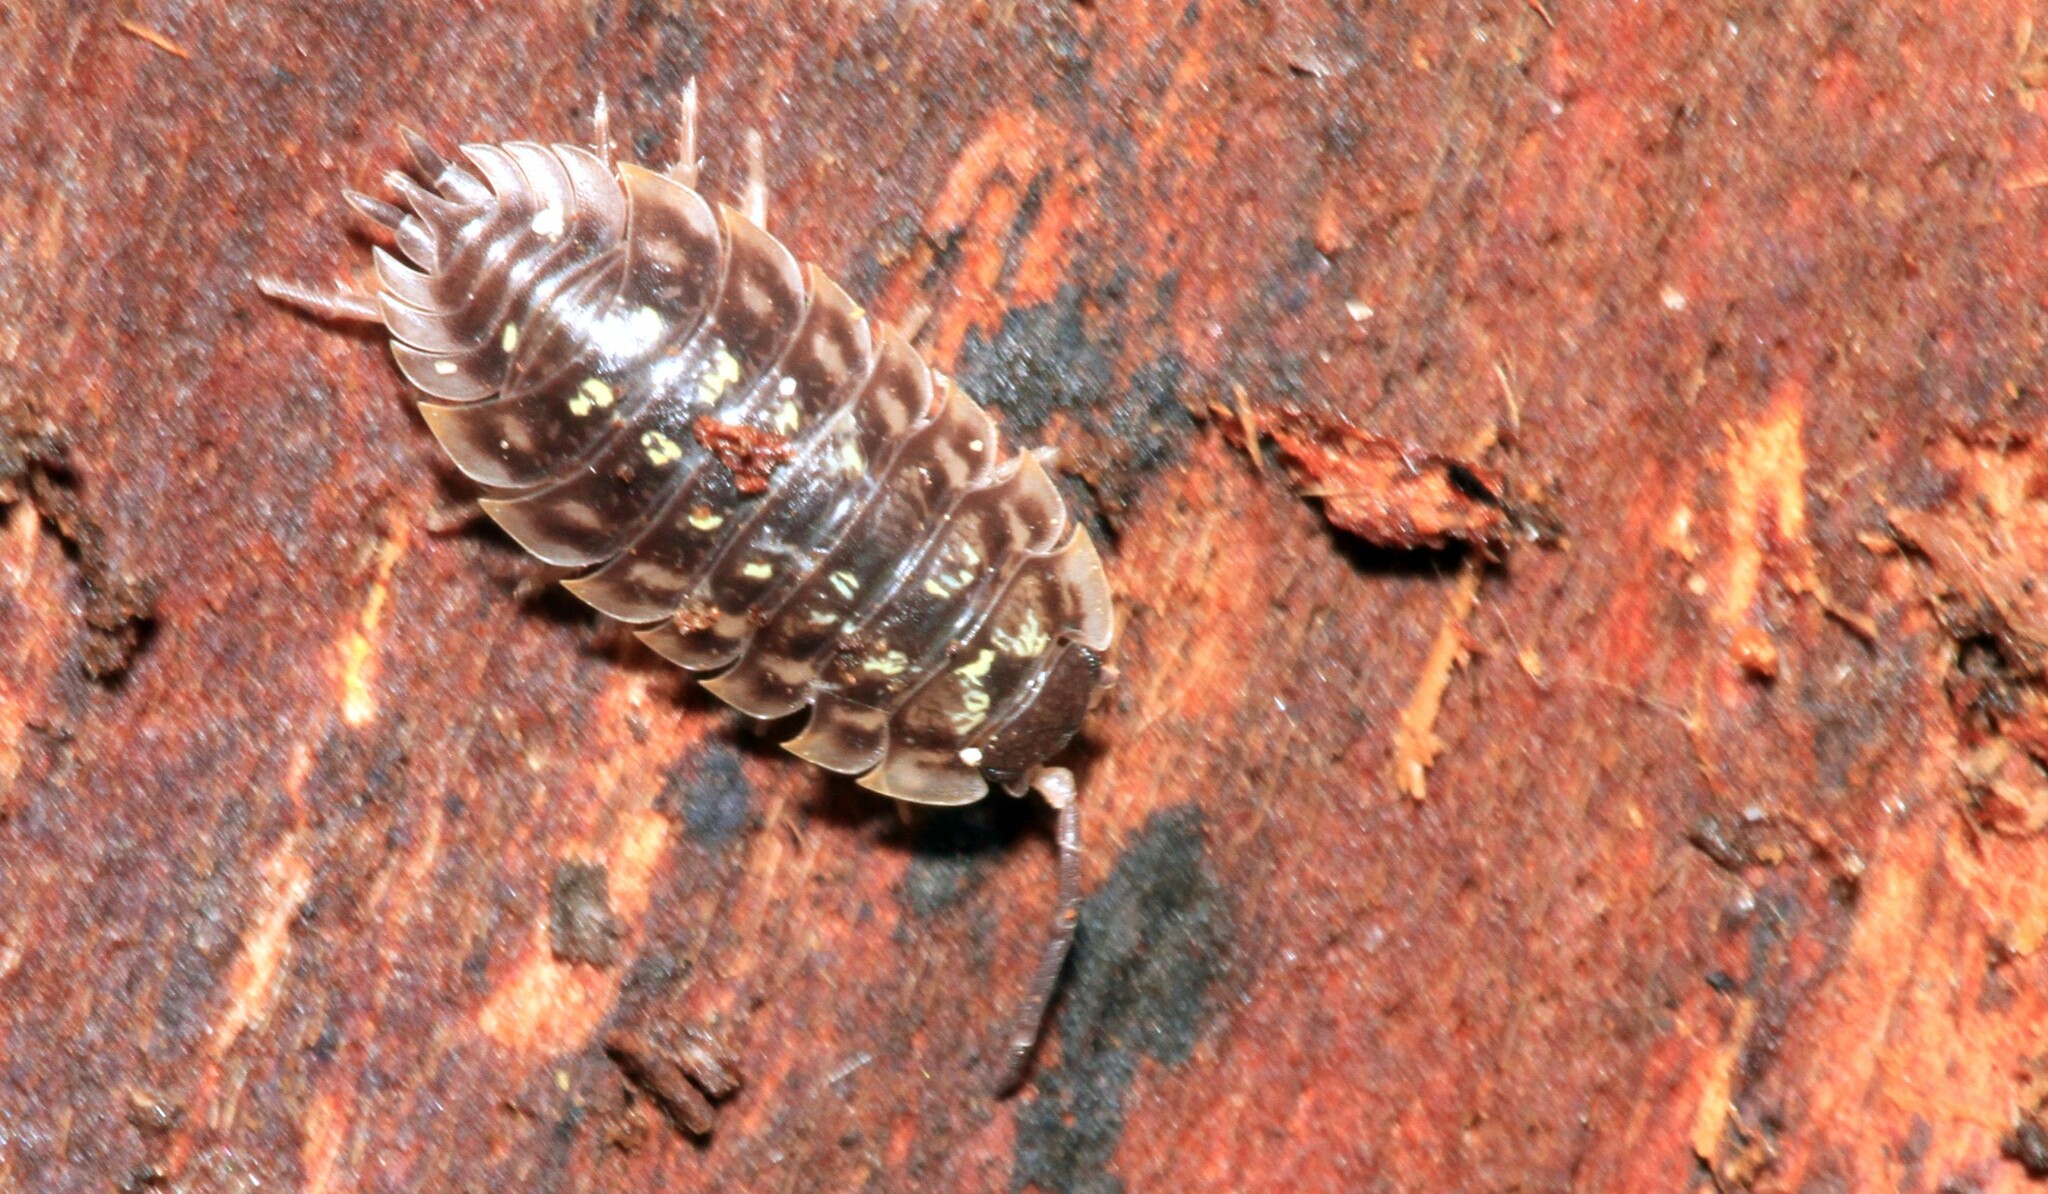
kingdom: Animalia
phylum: Arthropoda
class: Malacostraca
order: Isopoda
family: Oniscidae
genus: Oniscus
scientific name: Oniscus asellus
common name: Common shiny woodlouse
